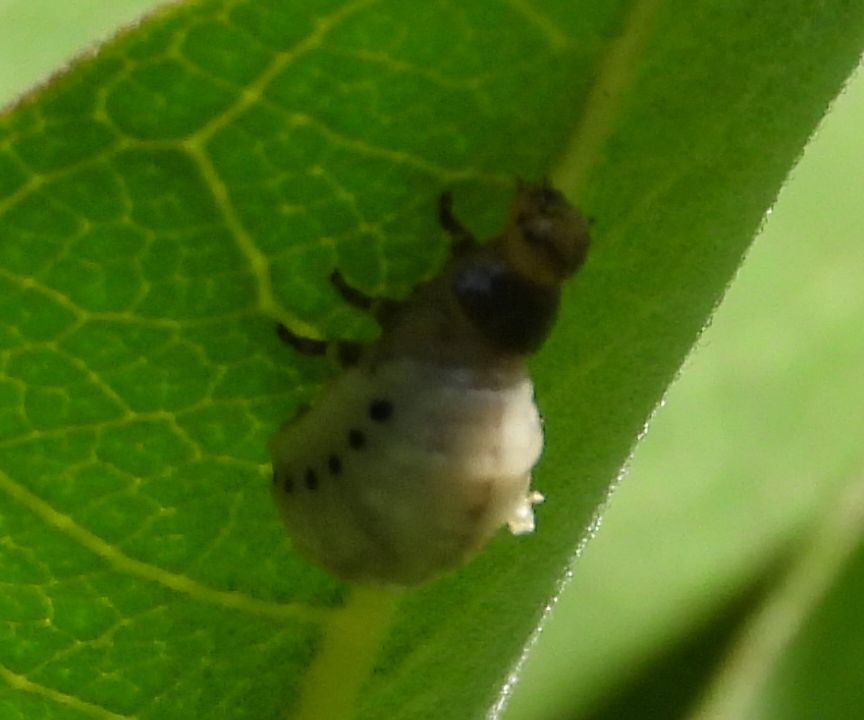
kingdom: Animalia
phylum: Arthropoda
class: Insecta
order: Coleoptera
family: Chrysomelidae
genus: Labidomera
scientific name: Labidomera clivicollis
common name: Swamp milkweed leaf beetle
